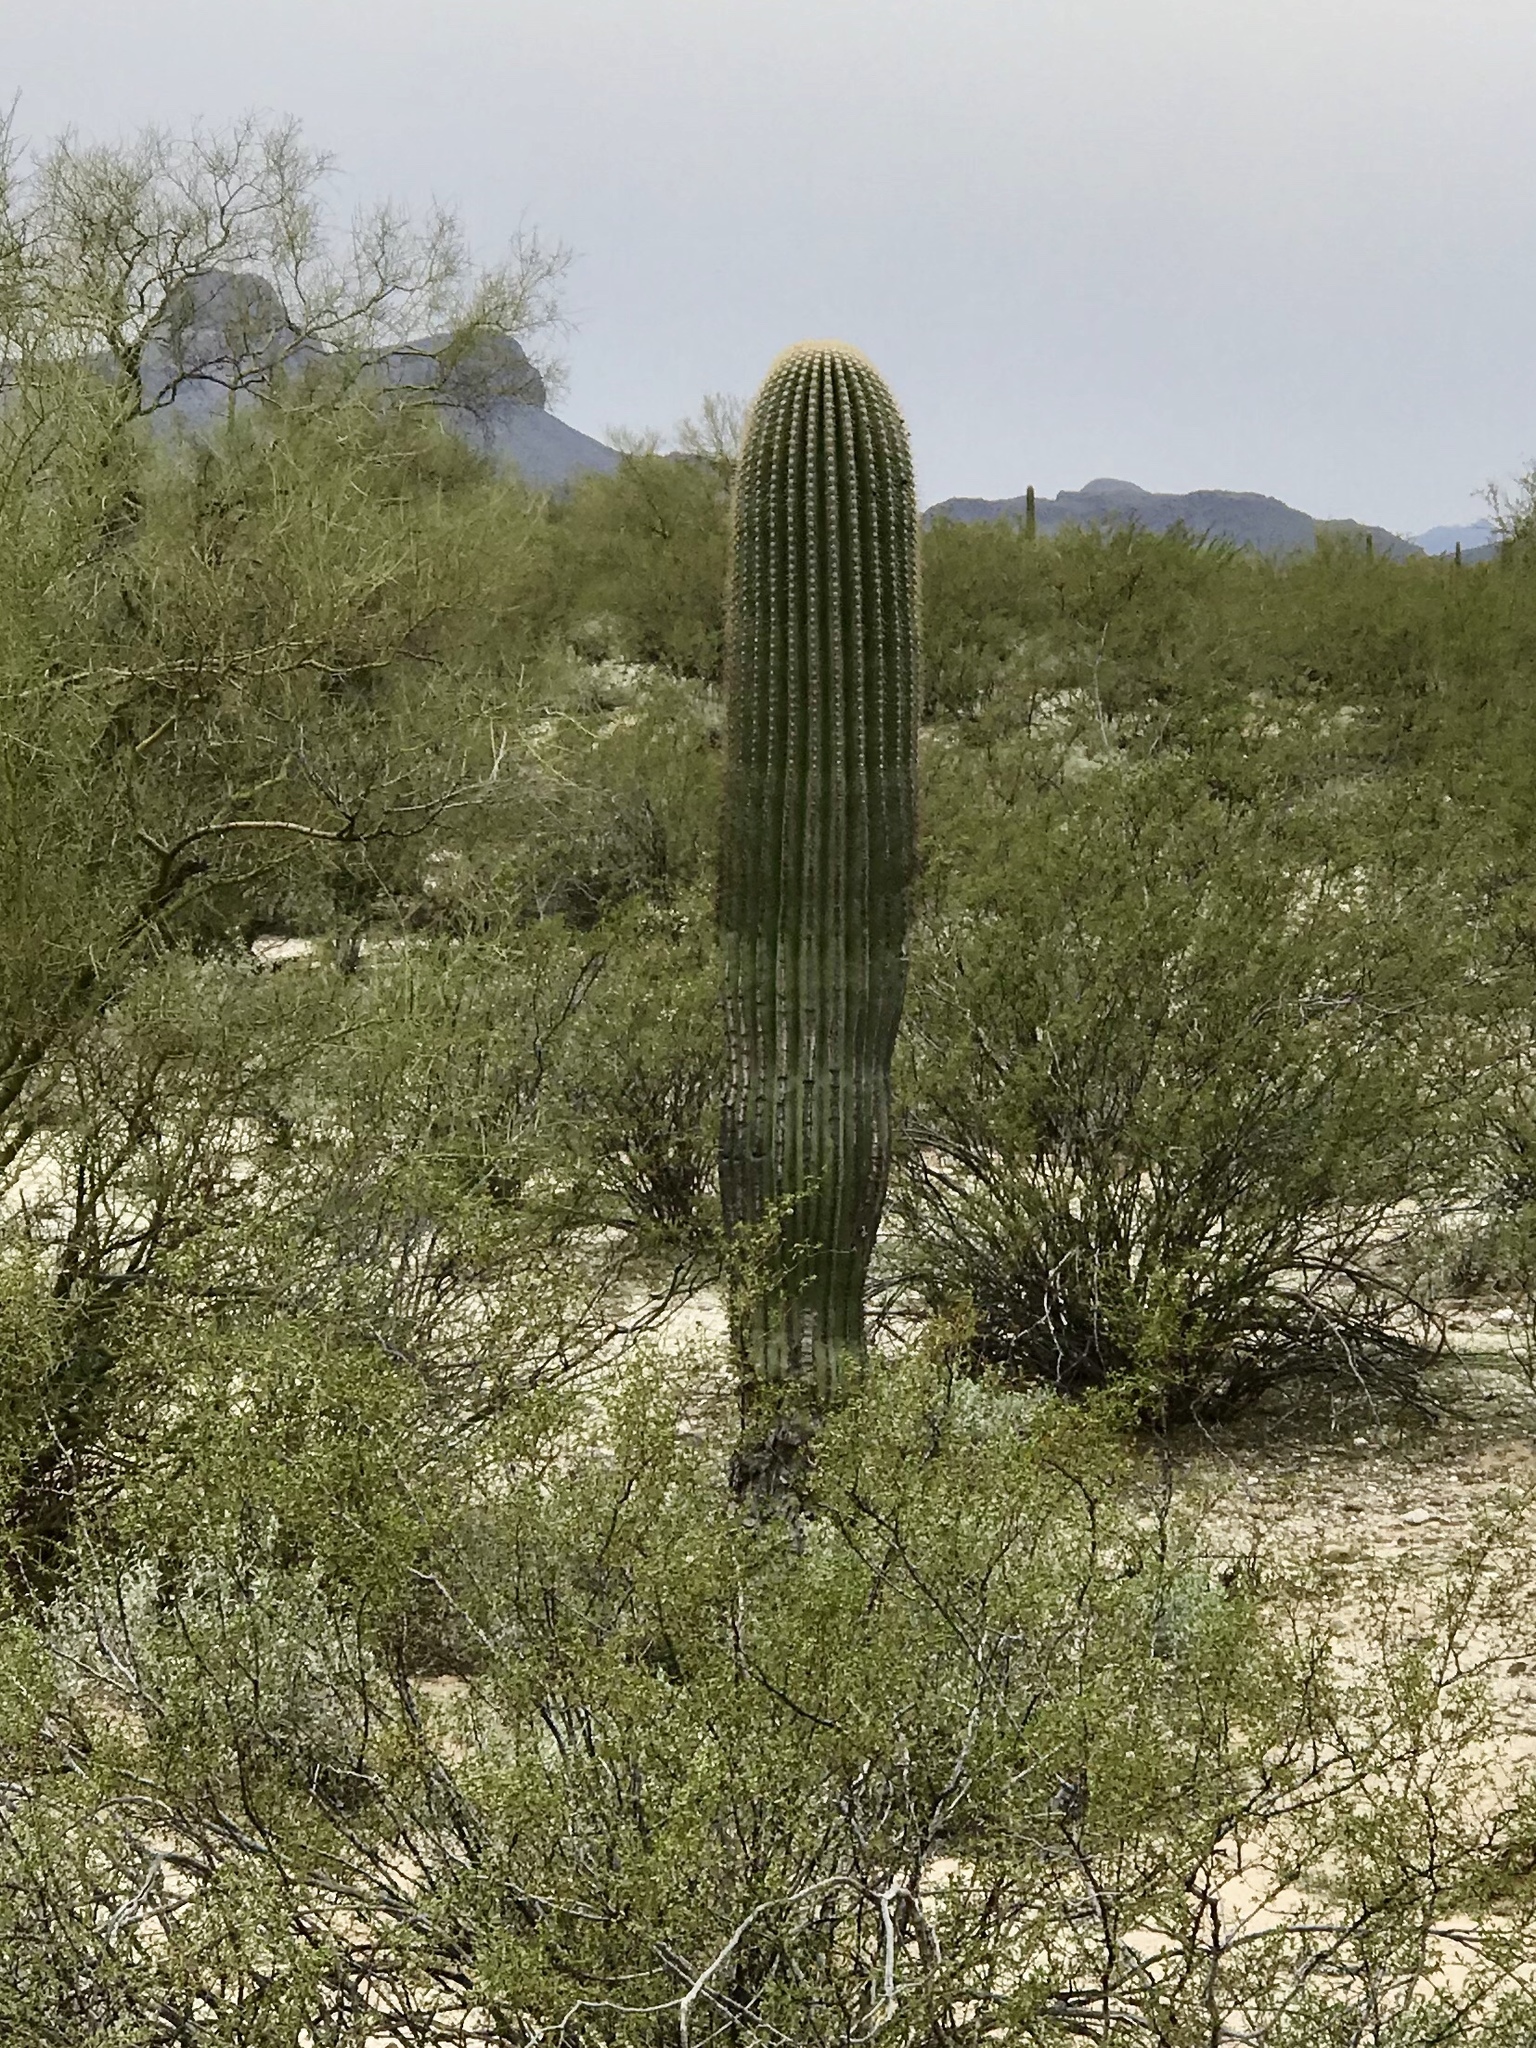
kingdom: Plantae
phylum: Tracheophyta
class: Magnoliopsida
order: Caryophyllales
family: Cactaceae
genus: Carnegiea
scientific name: Carnegiea gigantea
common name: Saguaro
